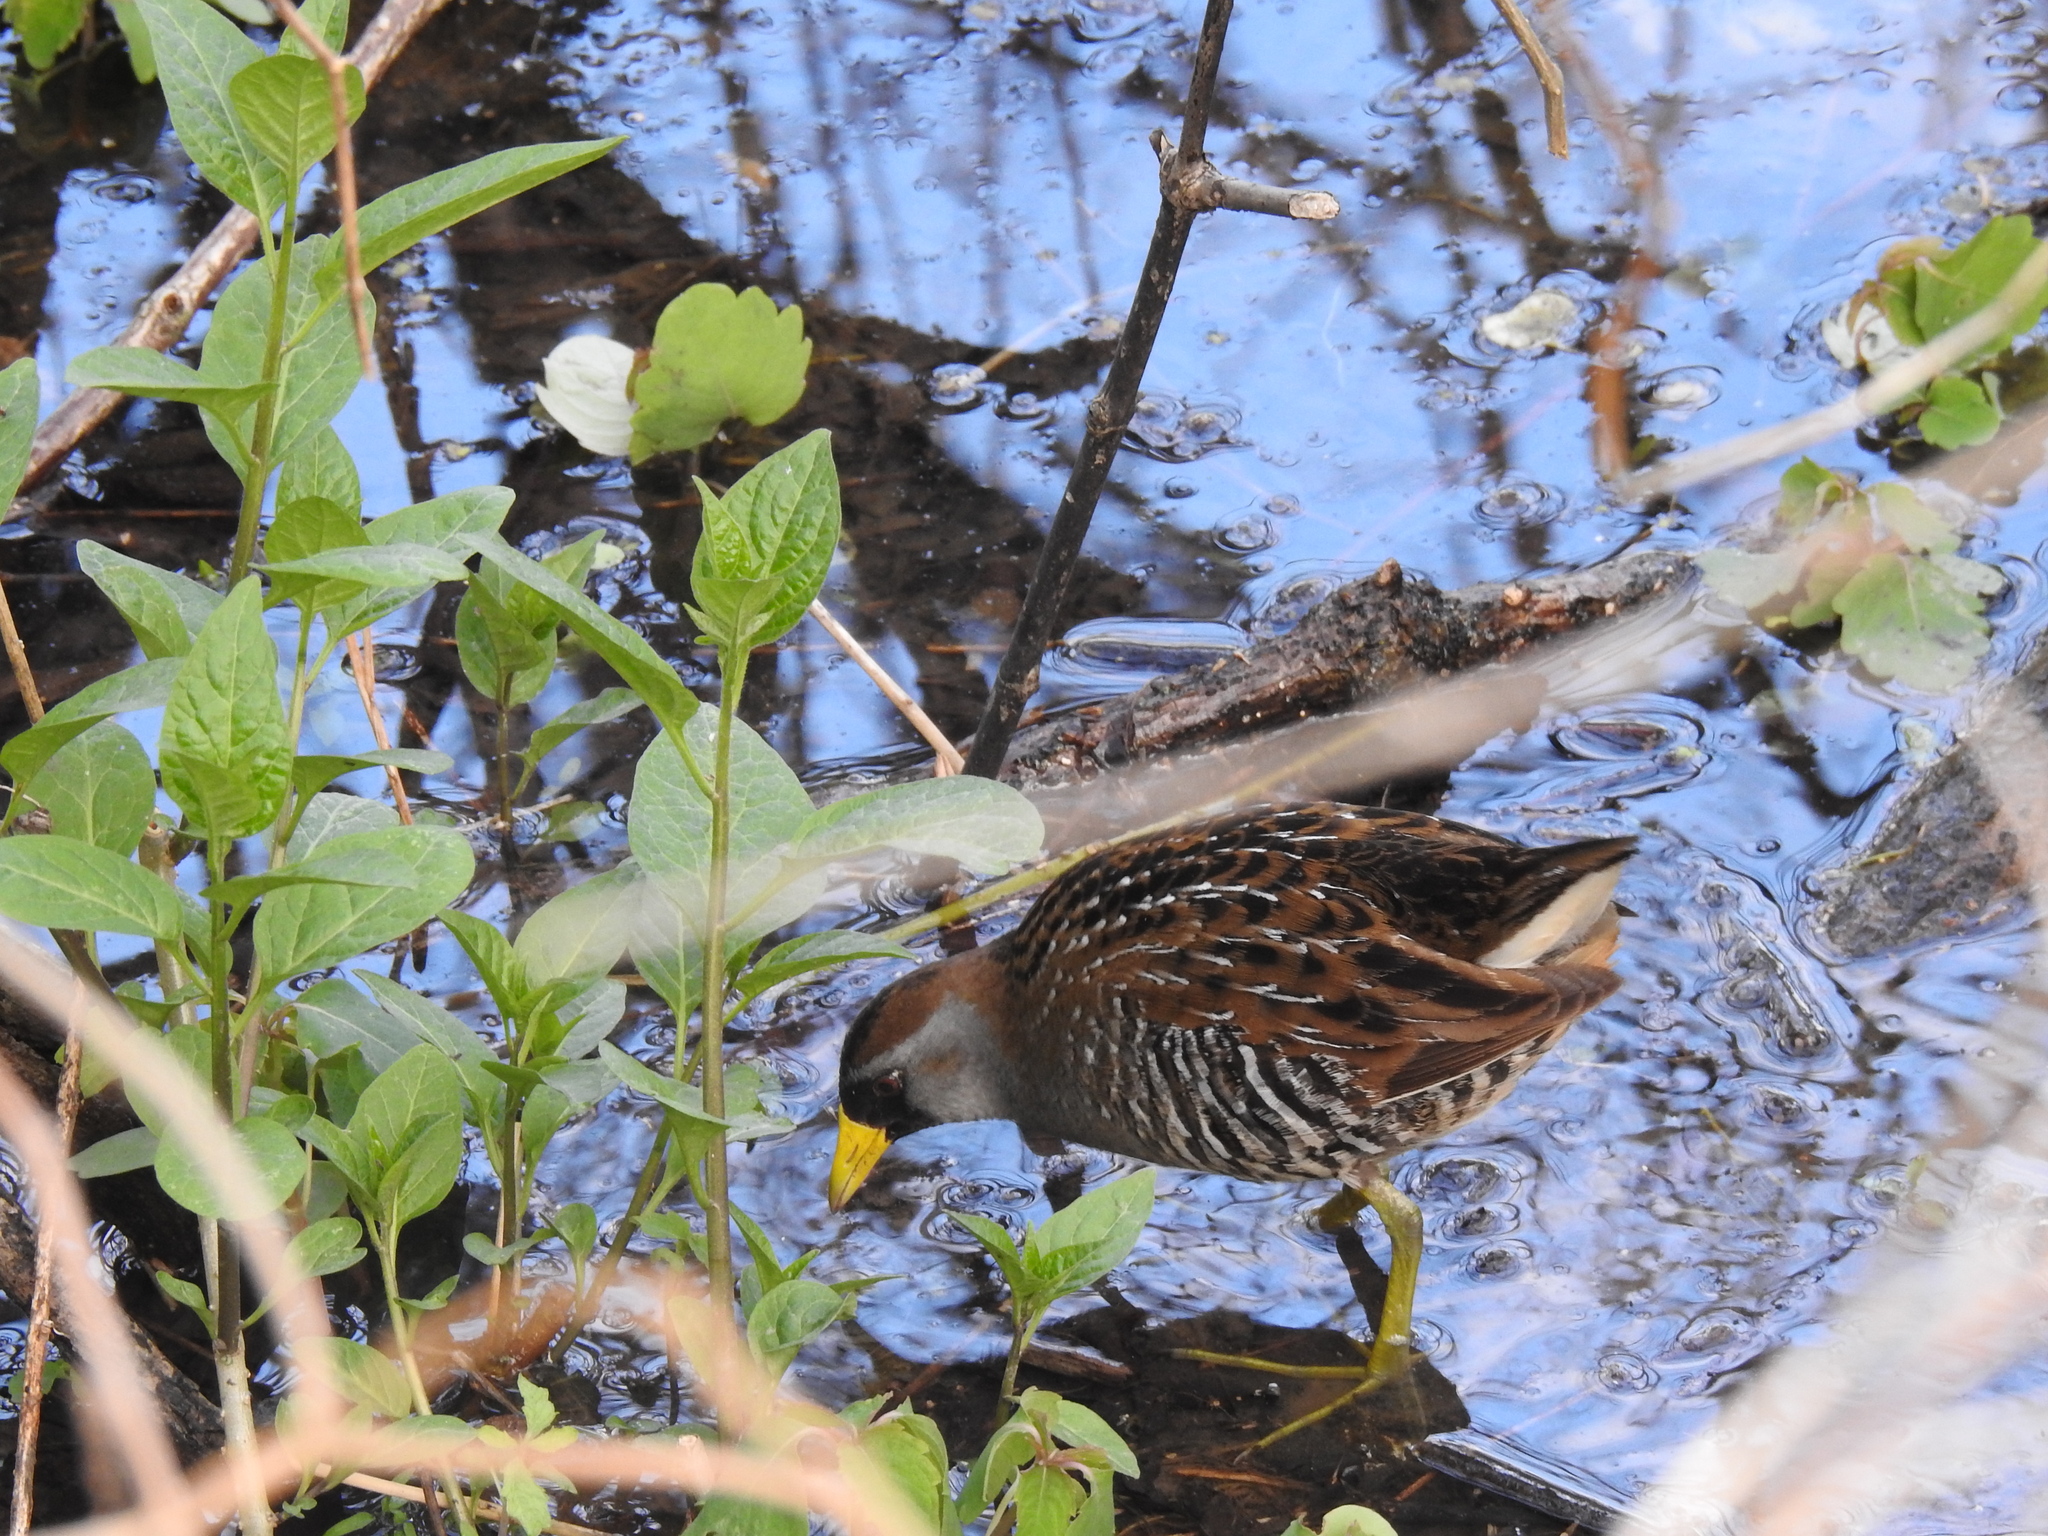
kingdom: Animalia
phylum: Chordata
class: Aves
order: Gruiformes
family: Rallidae
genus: Porzana
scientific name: Porzana carolina
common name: Sora
